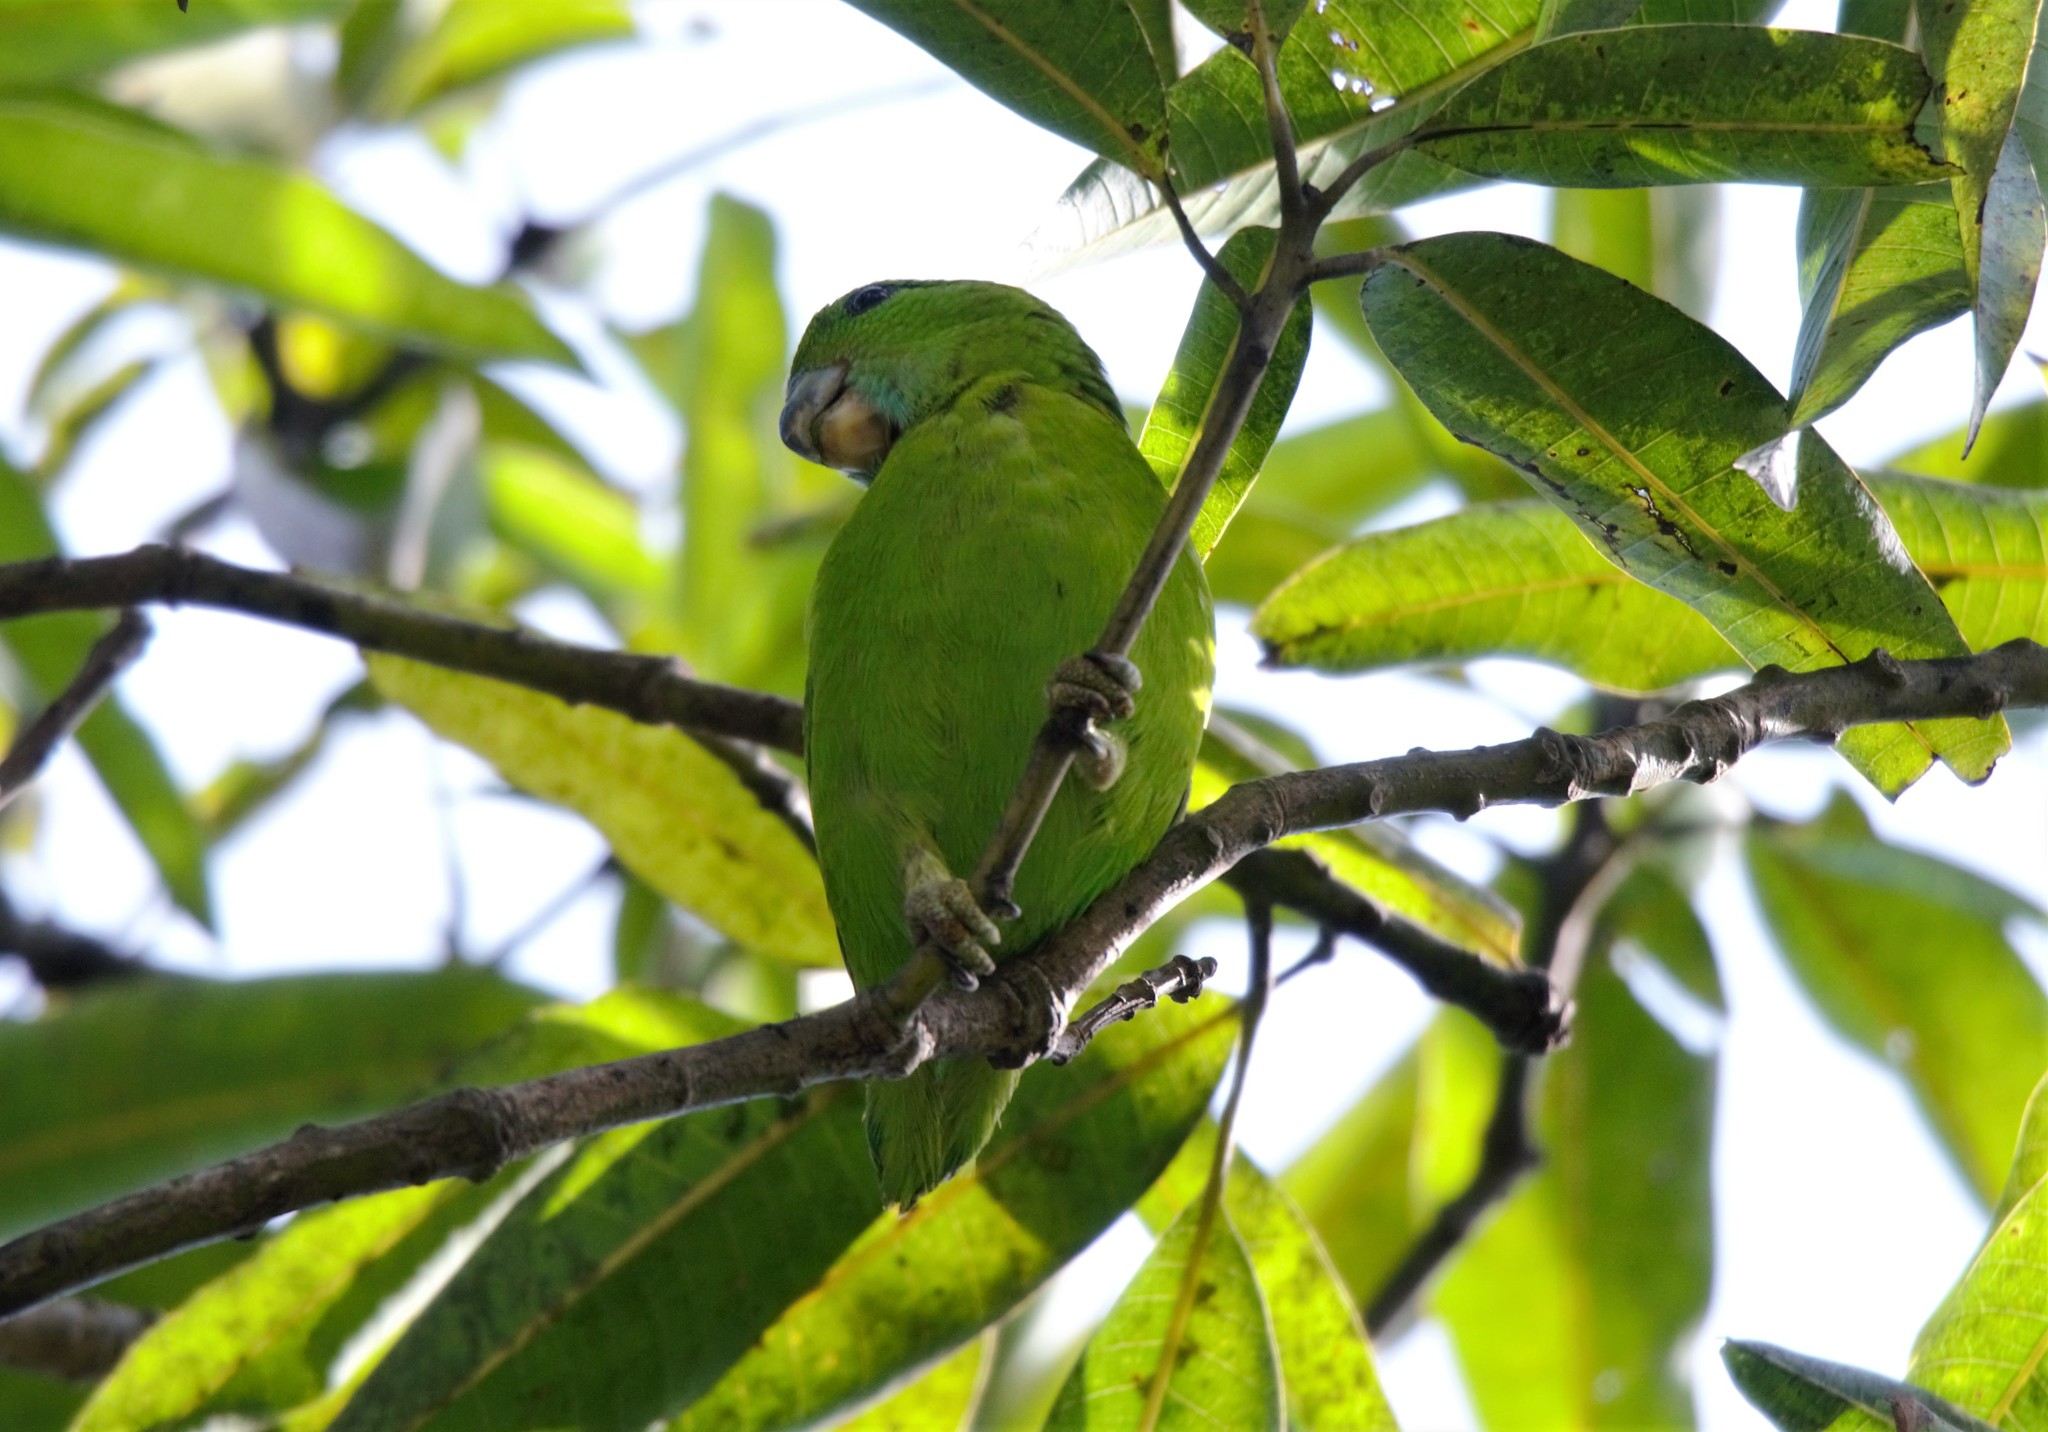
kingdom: Animalia
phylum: Chordata
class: Aves
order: Psittaciformes
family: Psittacidae
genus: Bolbopsittacus
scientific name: Bolbopsittacus lunulatus
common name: Guaiabero
